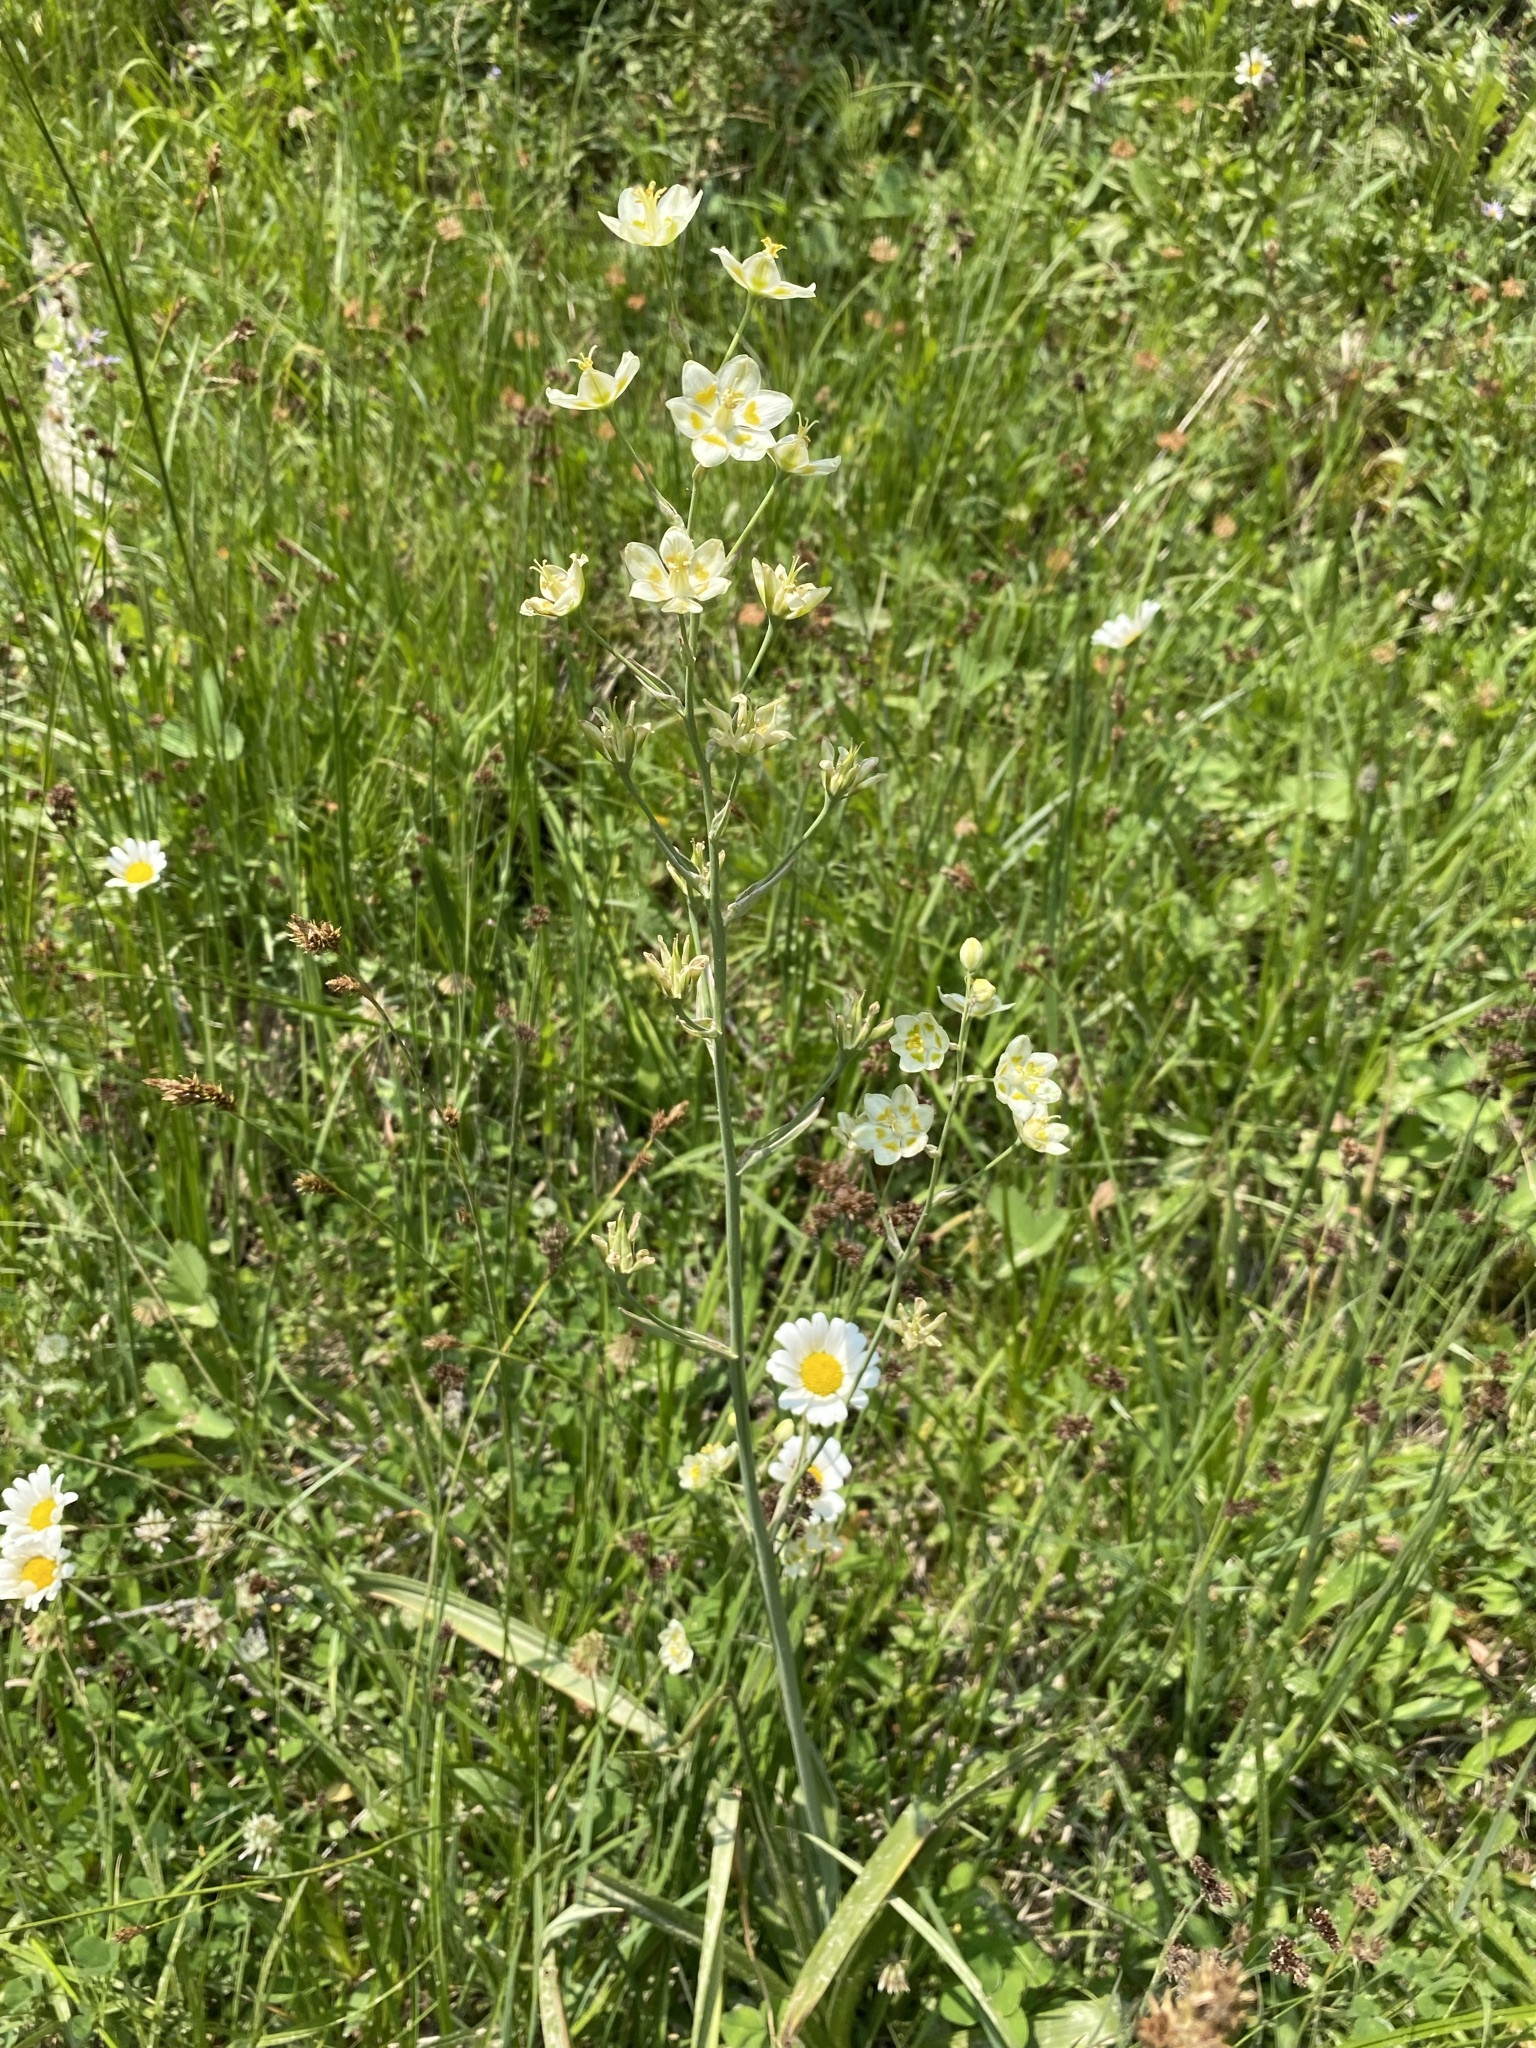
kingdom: Plantae
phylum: Tracheophyta
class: Liliopsida
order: Liliales
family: Melanthiaceae
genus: Anticlea
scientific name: Anticlea elegans
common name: Mountain death camas
